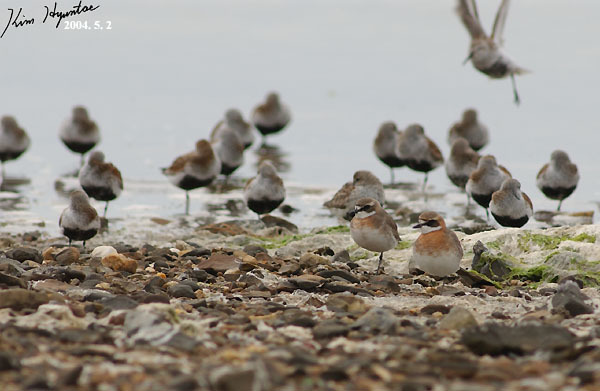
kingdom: Animalia
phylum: Chordata
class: Aves
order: Charadriiformes
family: Charadriidae
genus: Anarhynchus
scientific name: Anarhynchus
